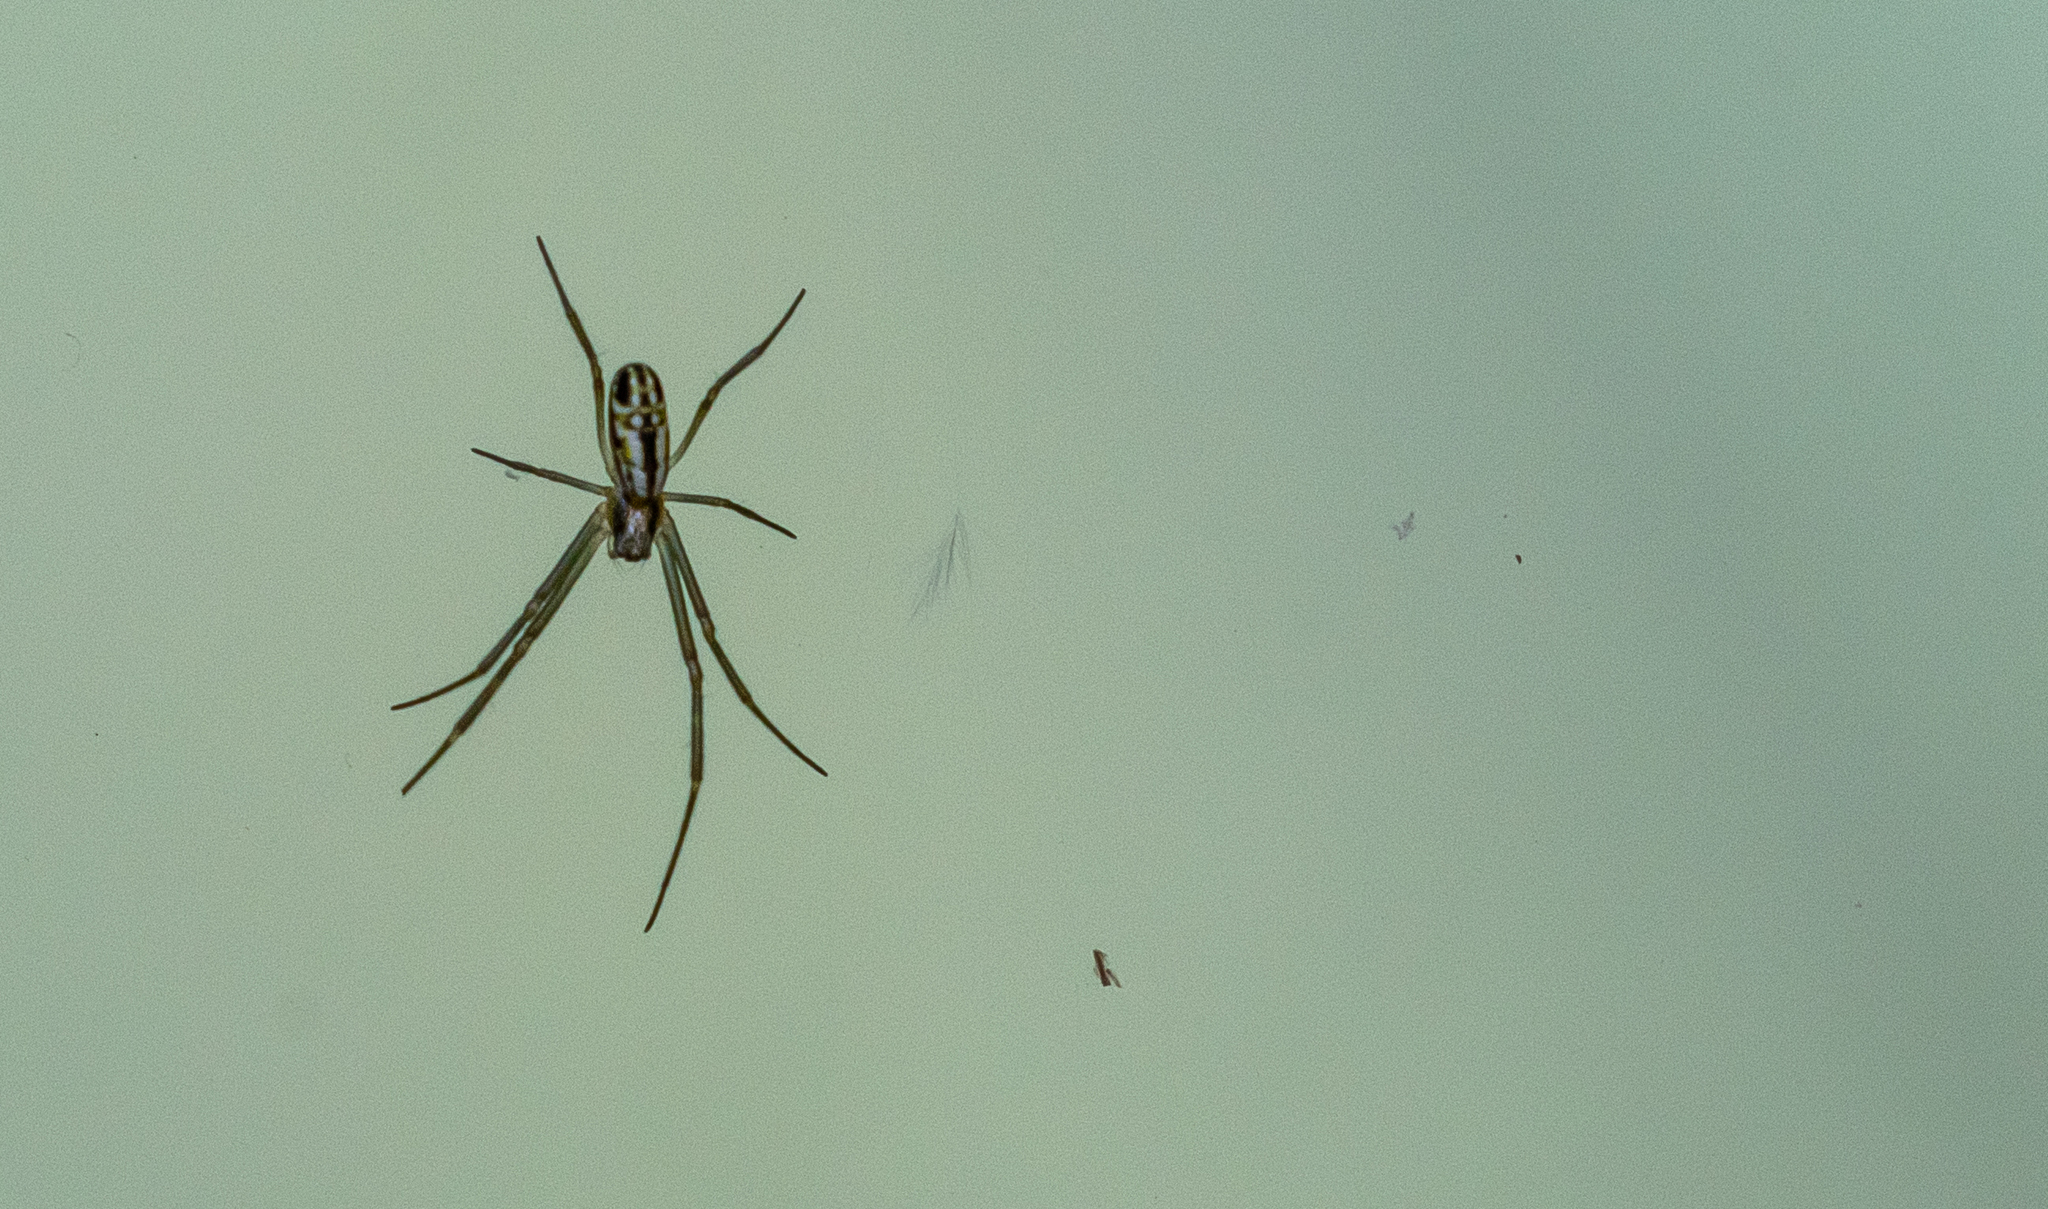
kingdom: Animalia
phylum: Arthropoda
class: Arachnida
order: Araneae
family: Araneidae
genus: Trichonephila
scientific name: Trichonephila clavipes
